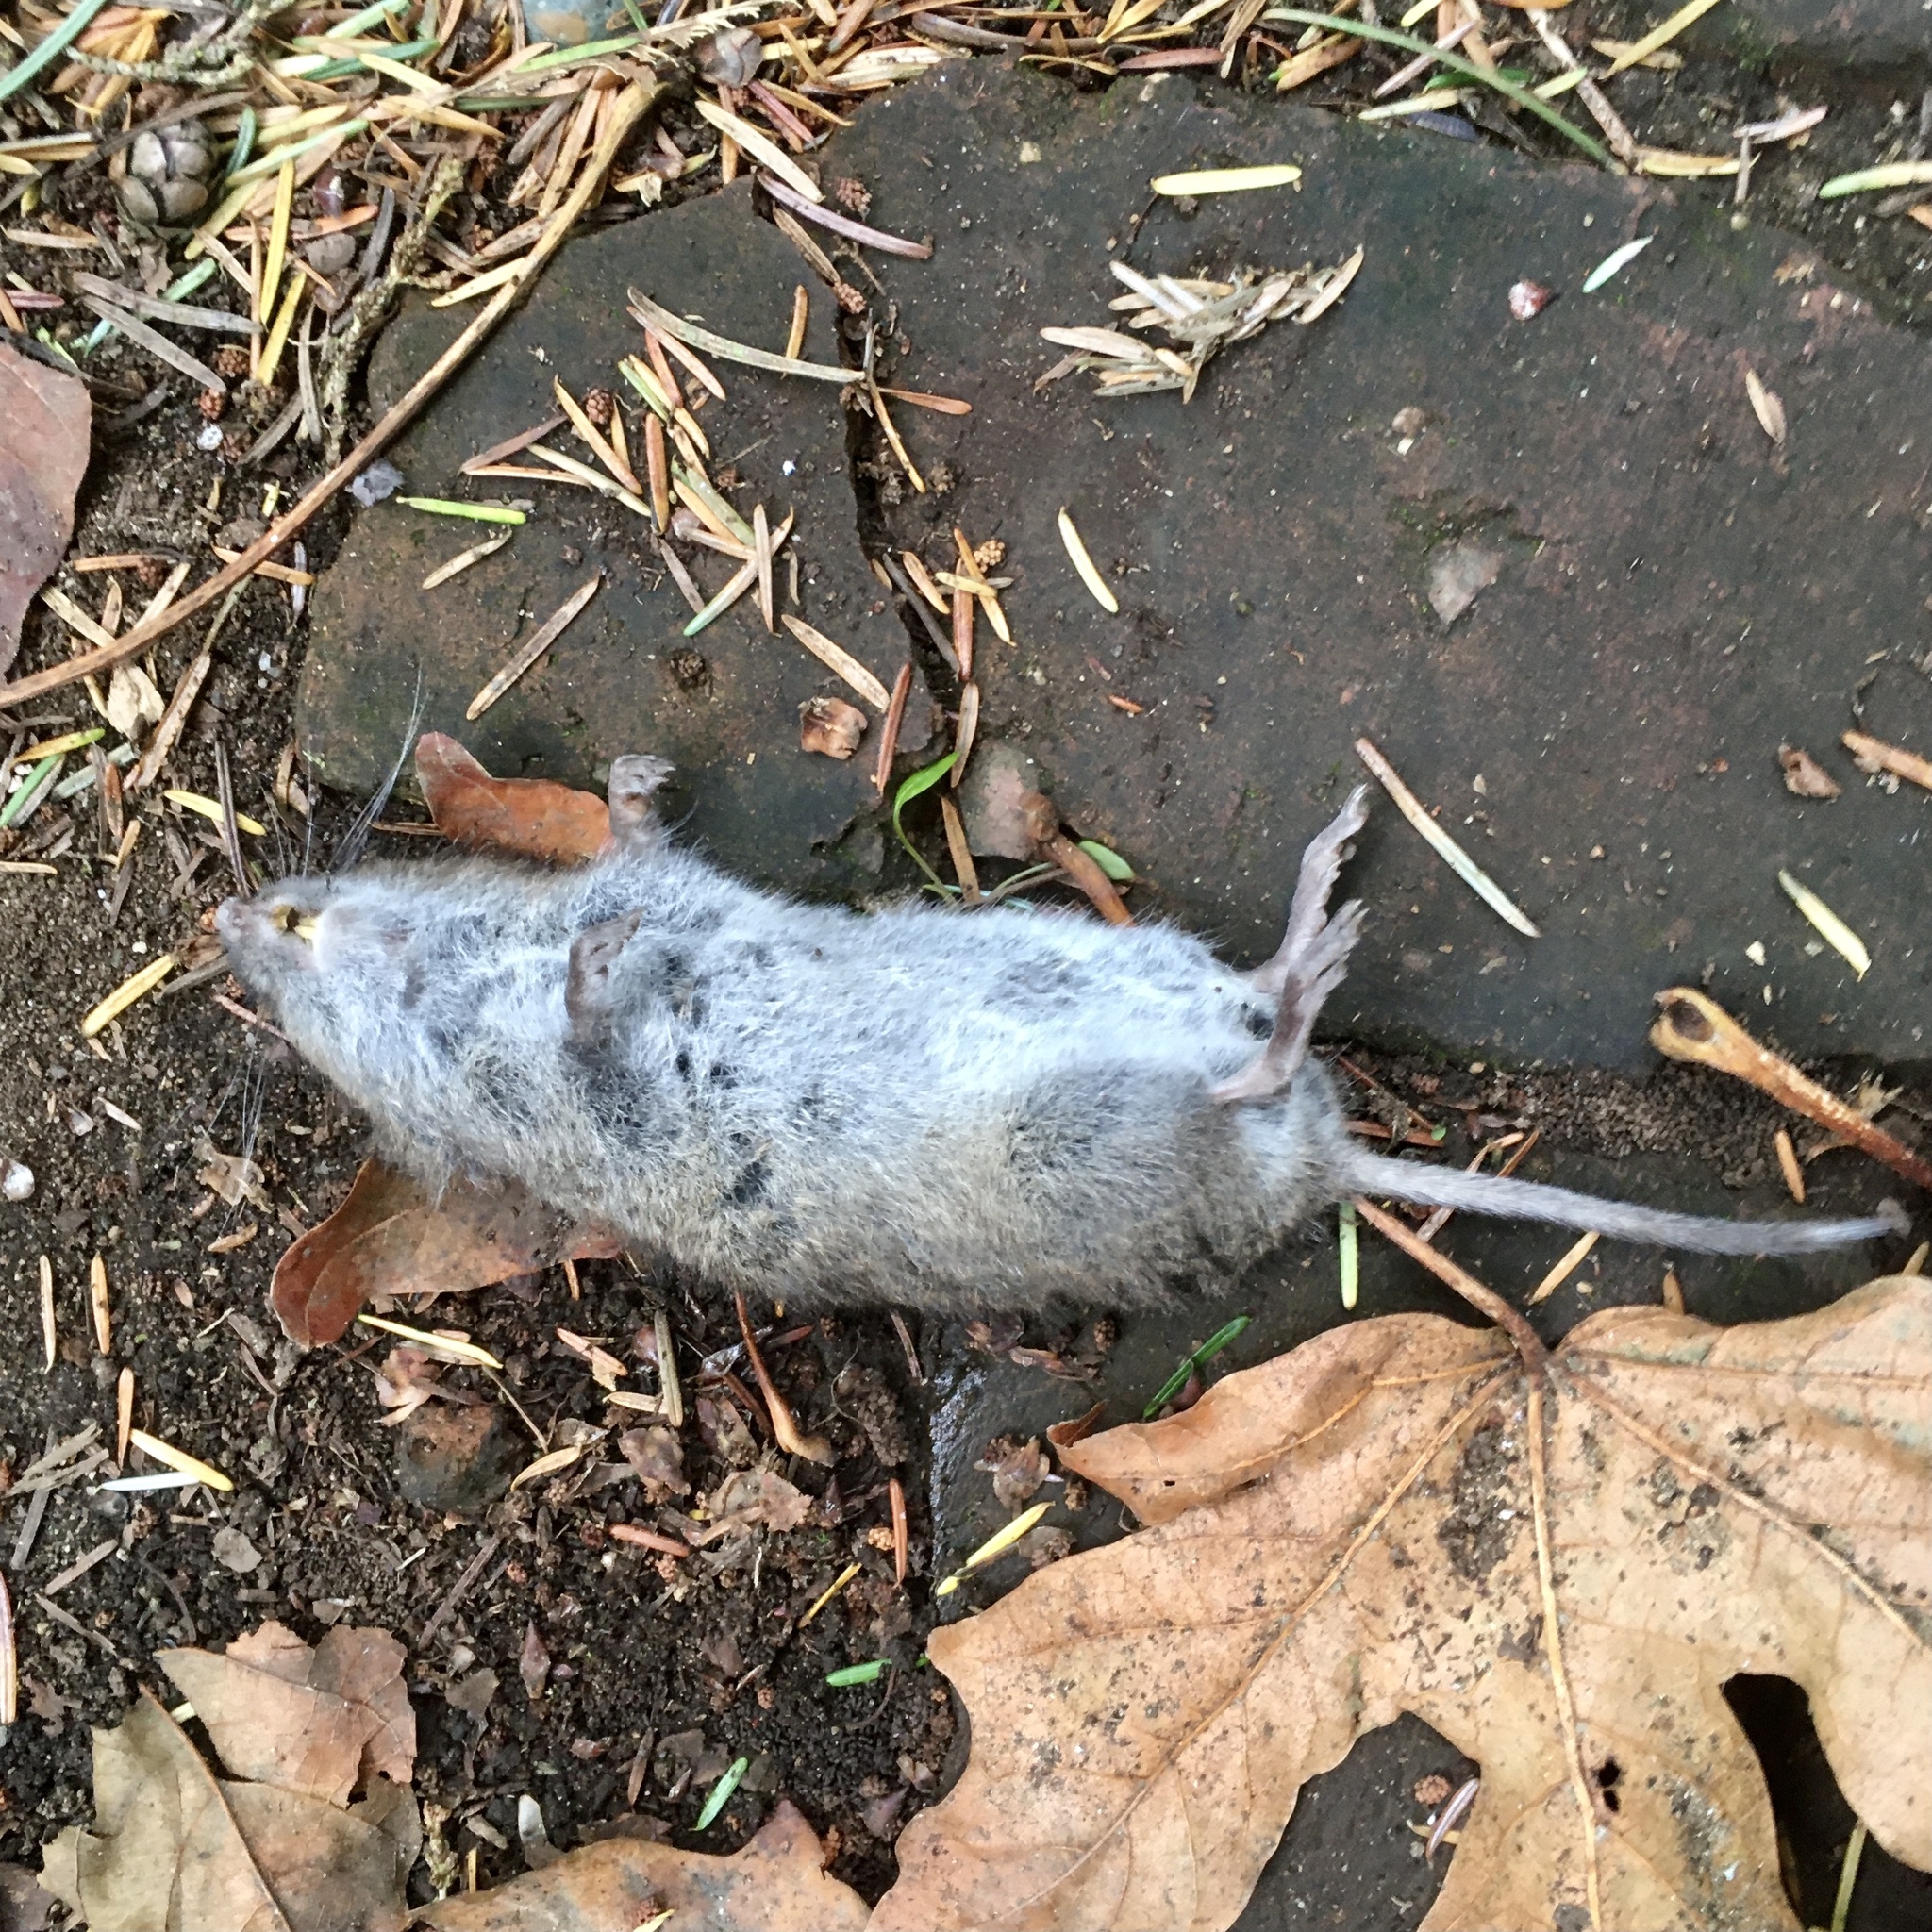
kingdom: Animalia
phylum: Chordata
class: Mammalia
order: Rodentia
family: Cricetidae
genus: Microtus
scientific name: Microtus townsendii
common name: Townsend's vole
